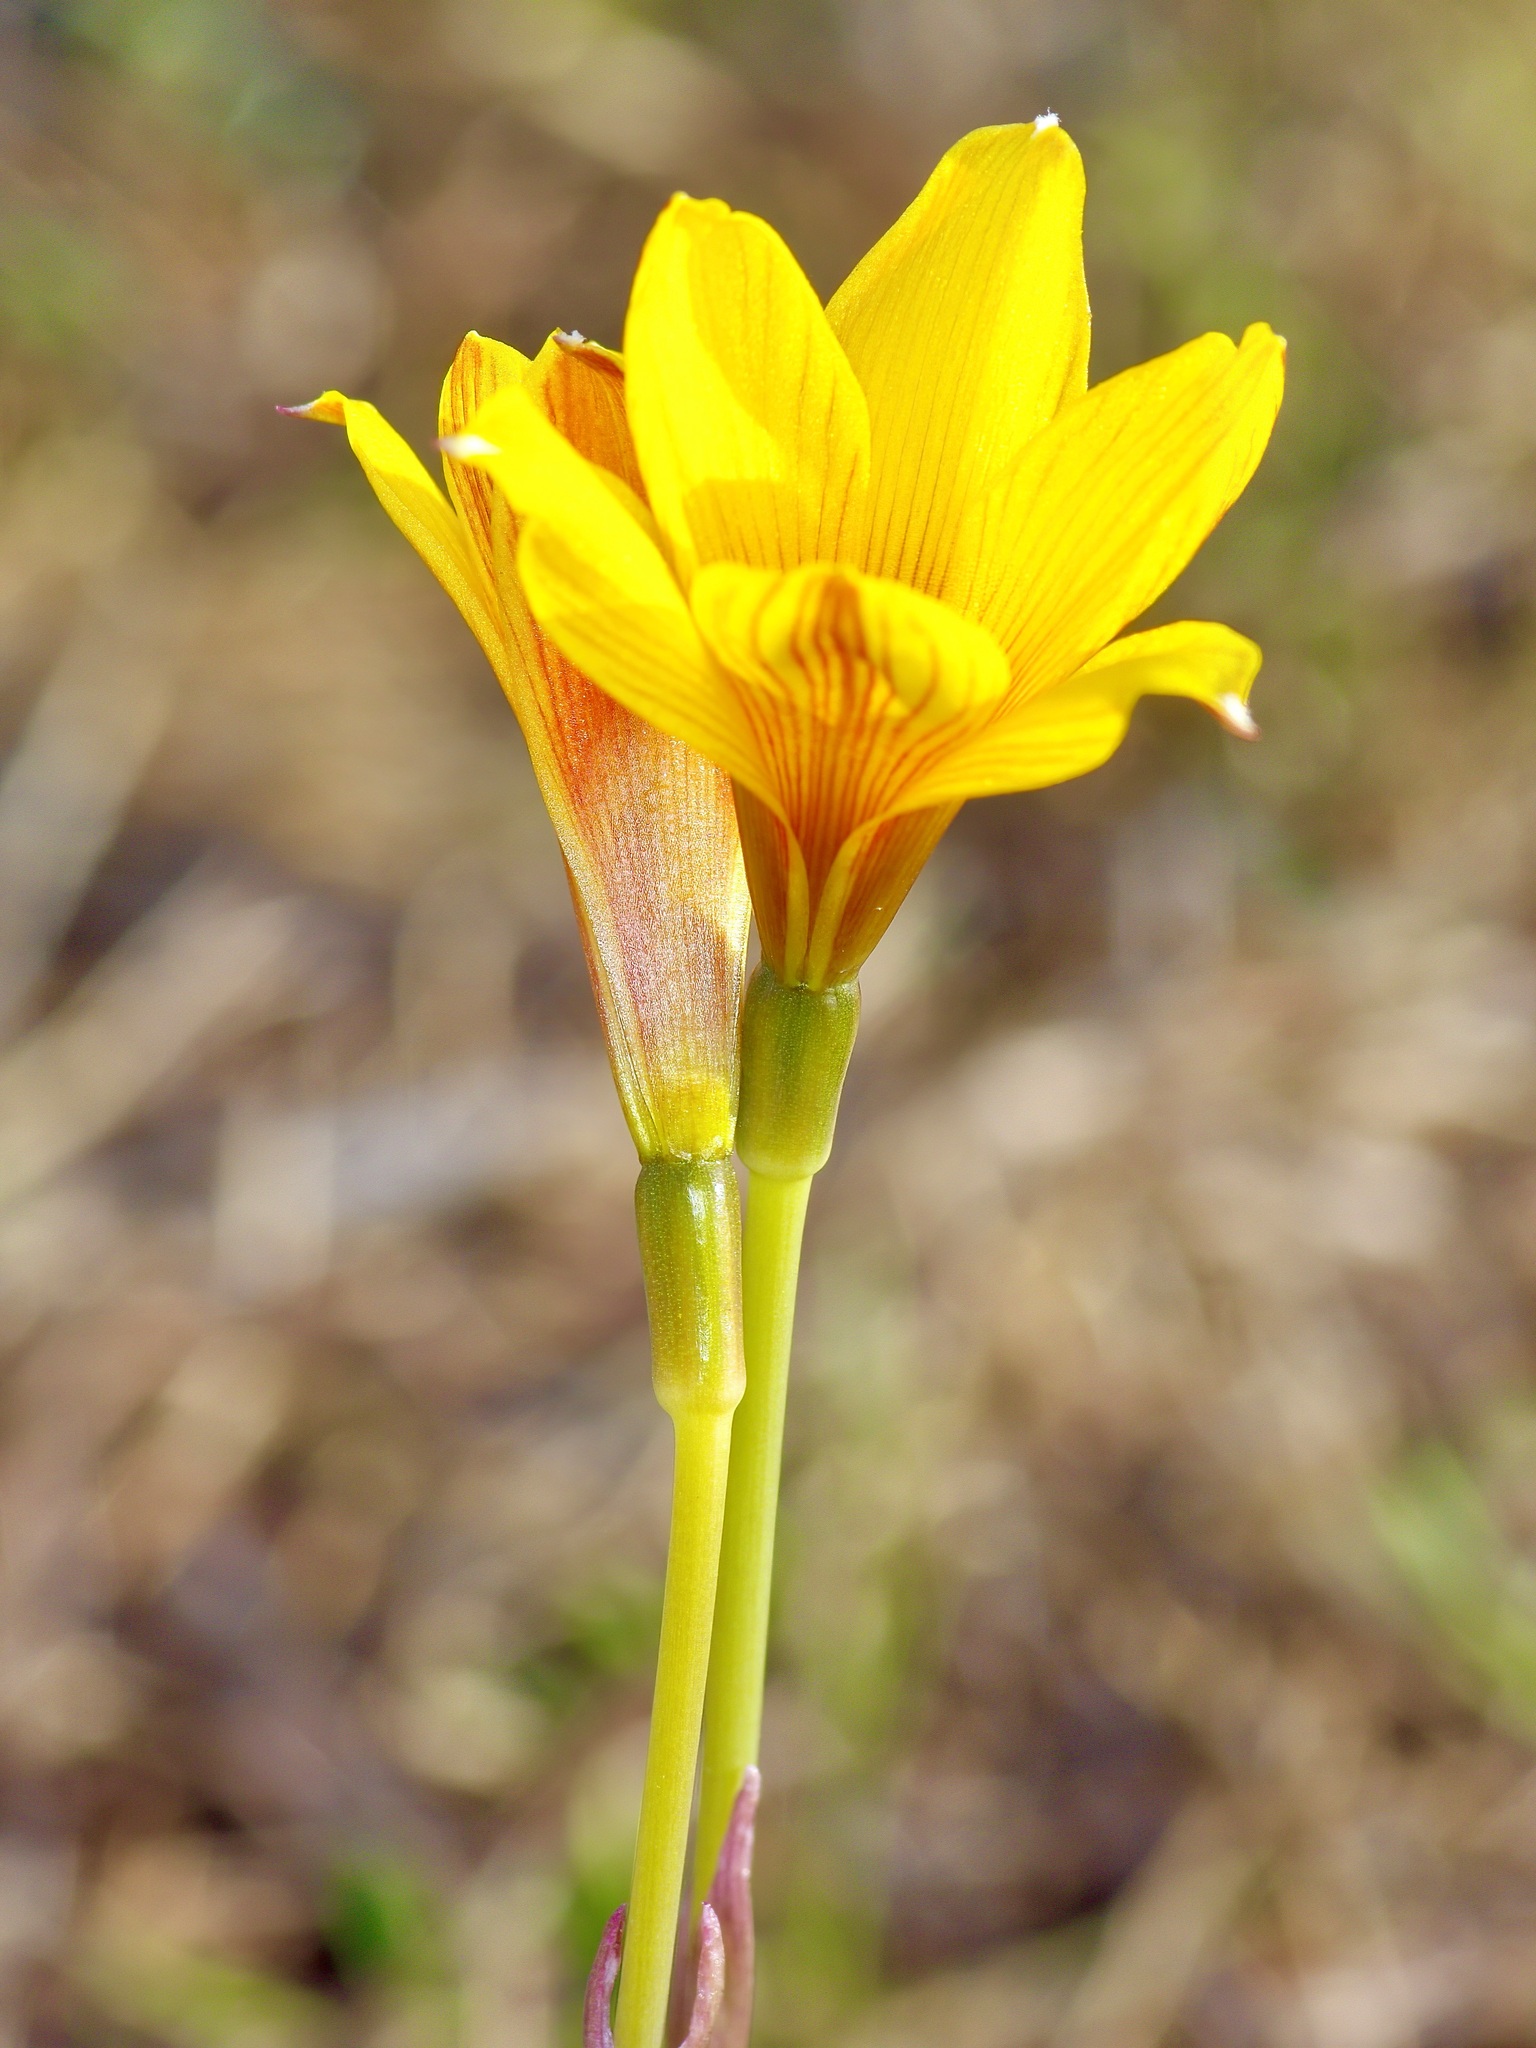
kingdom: Plantae
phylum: Tracheophyta
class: Liliopsida
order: Asparagales
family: Amaryllidaceae
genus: Zephyranthes
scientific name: Zephyranthes tubispatha
